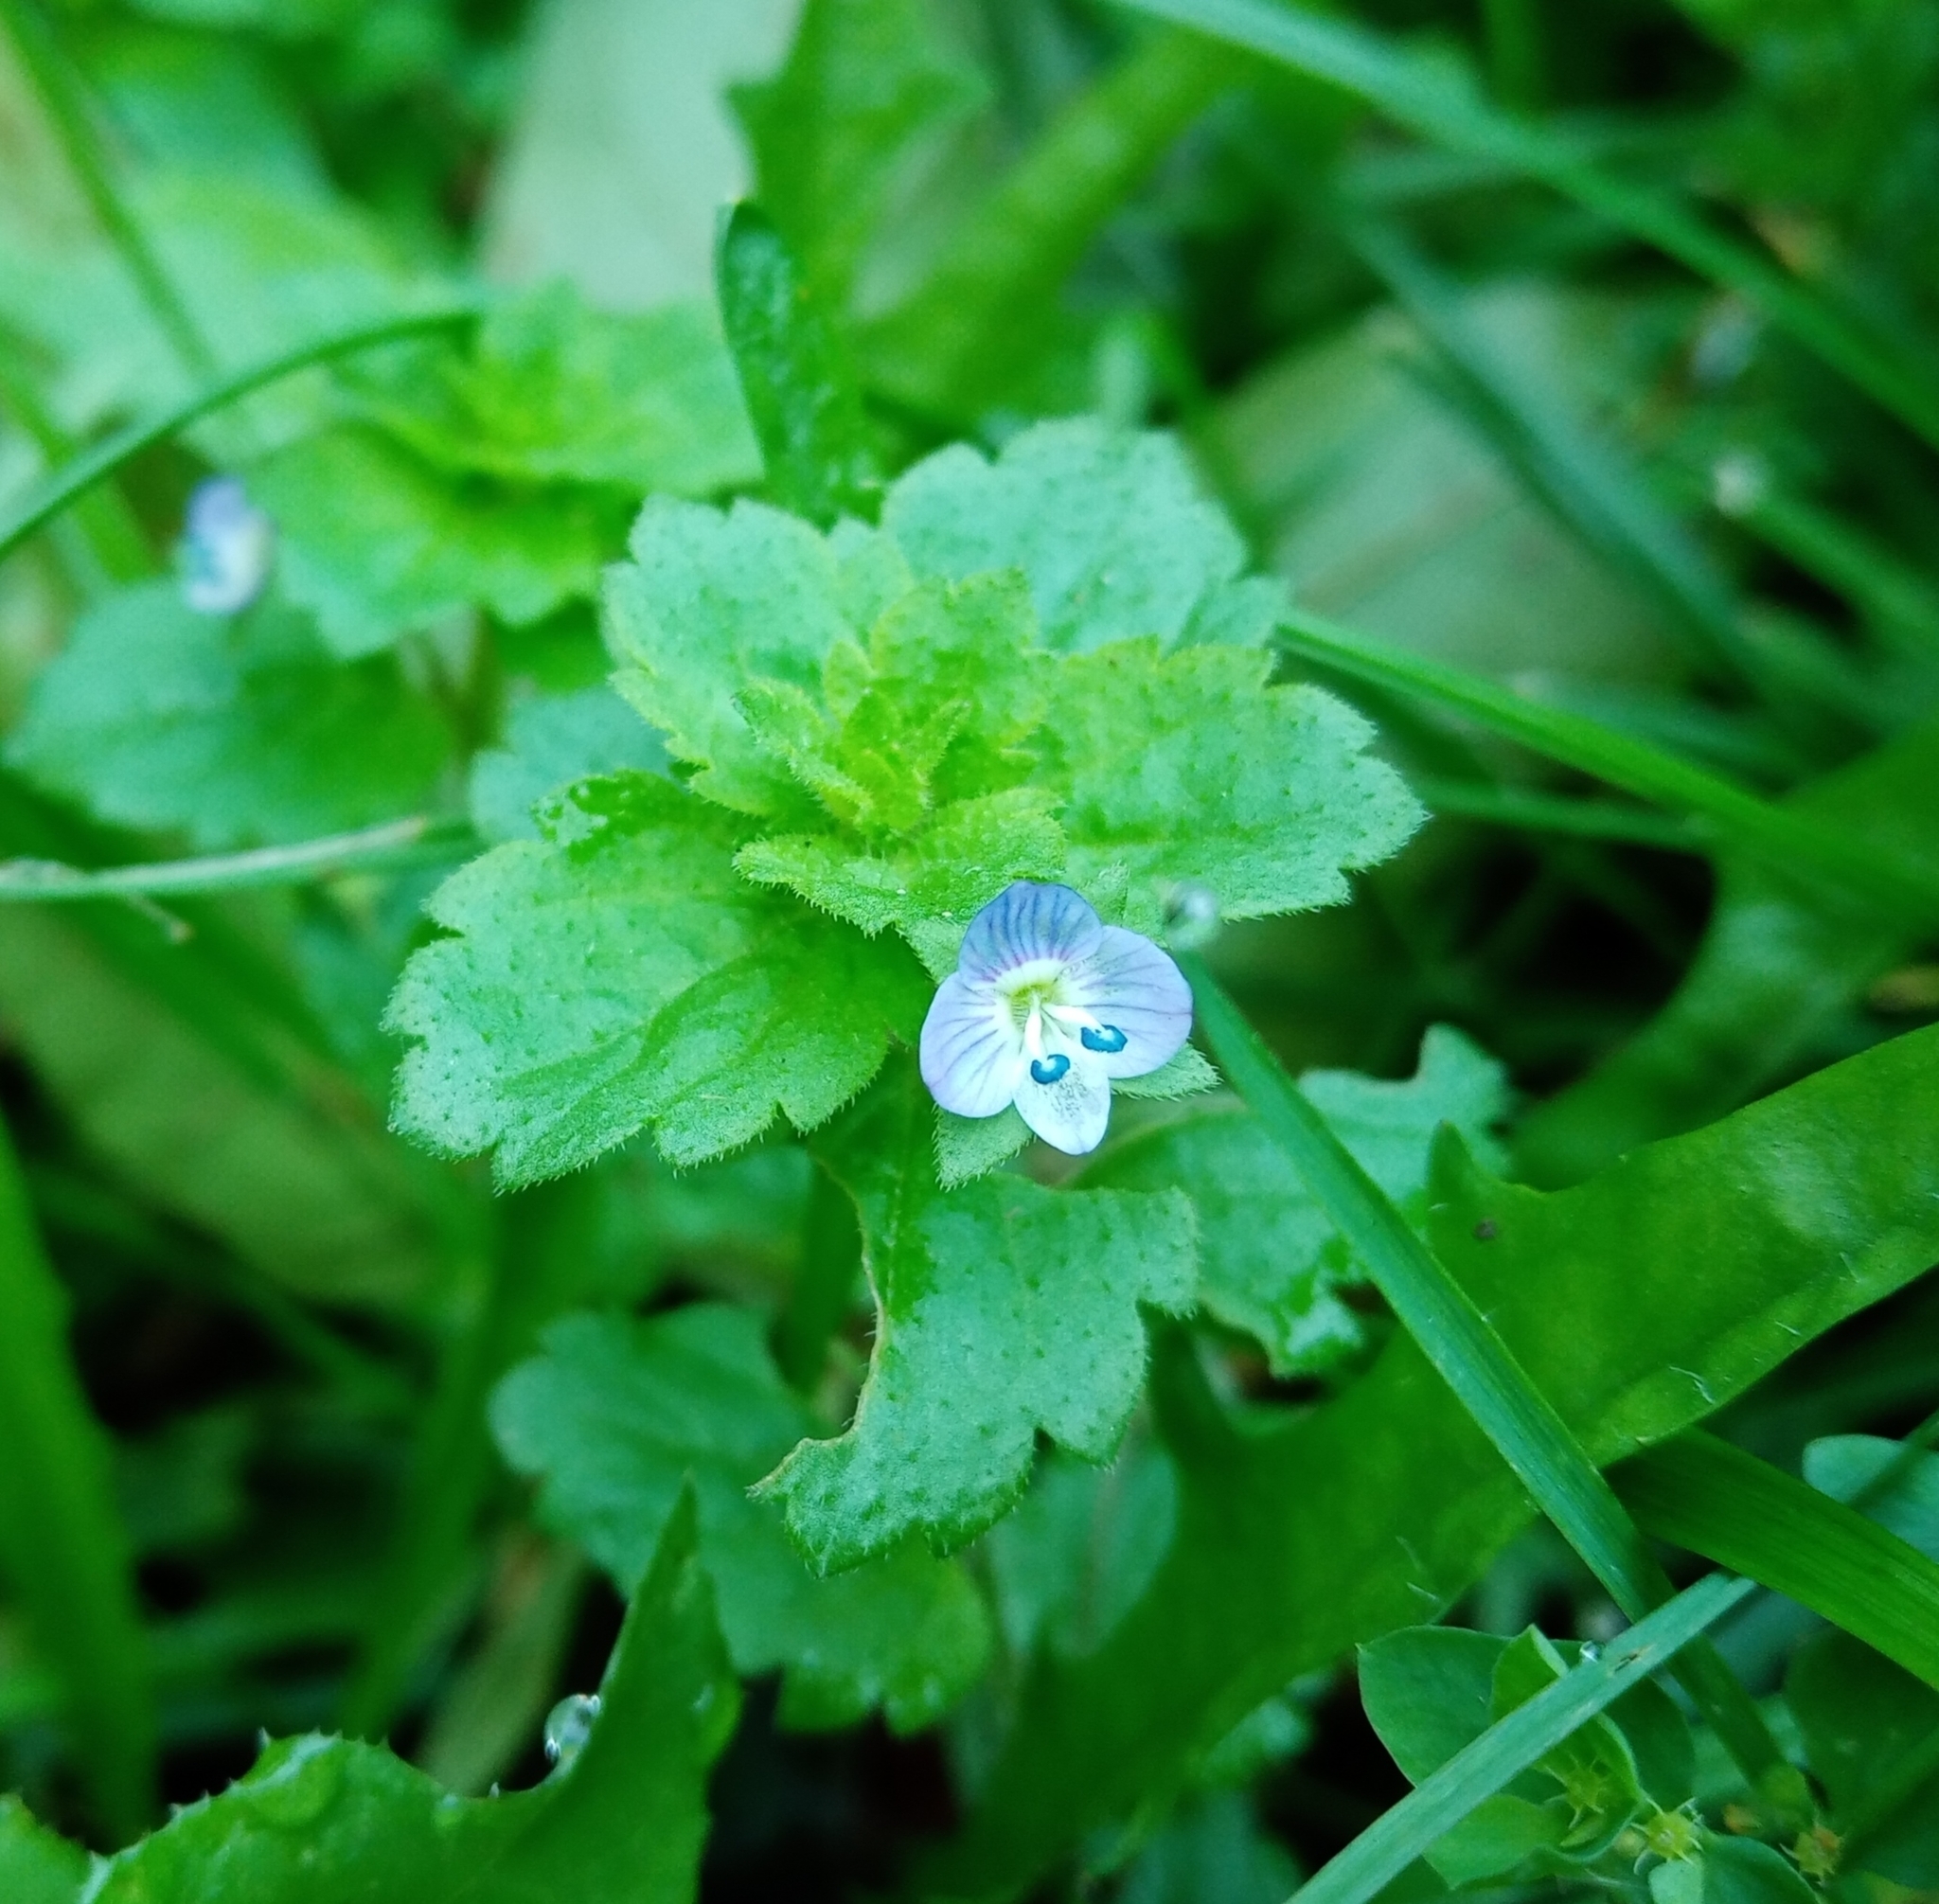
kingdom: Plantae
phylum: Tracheophyta
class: Magnoliopsida
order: Lamiales
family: Plantaginaceae
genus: Veronica
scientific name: Veronica persica
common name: Common field-speedwell
